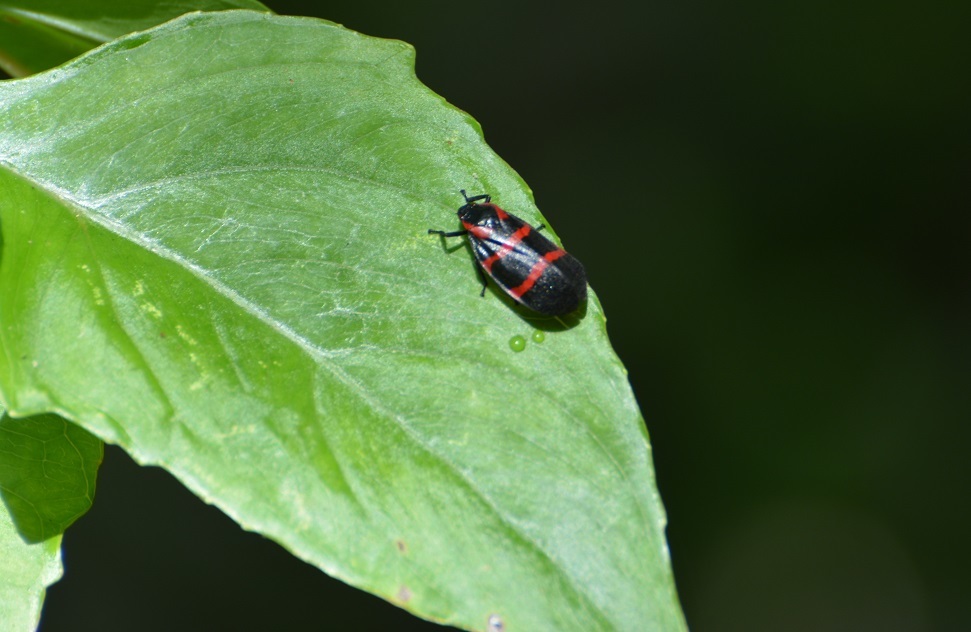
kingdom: Animalia
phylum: Arthropoda
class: Insecta
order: Hemiptera
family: Cercopidae
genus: Huaina
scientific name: Huaina inca
